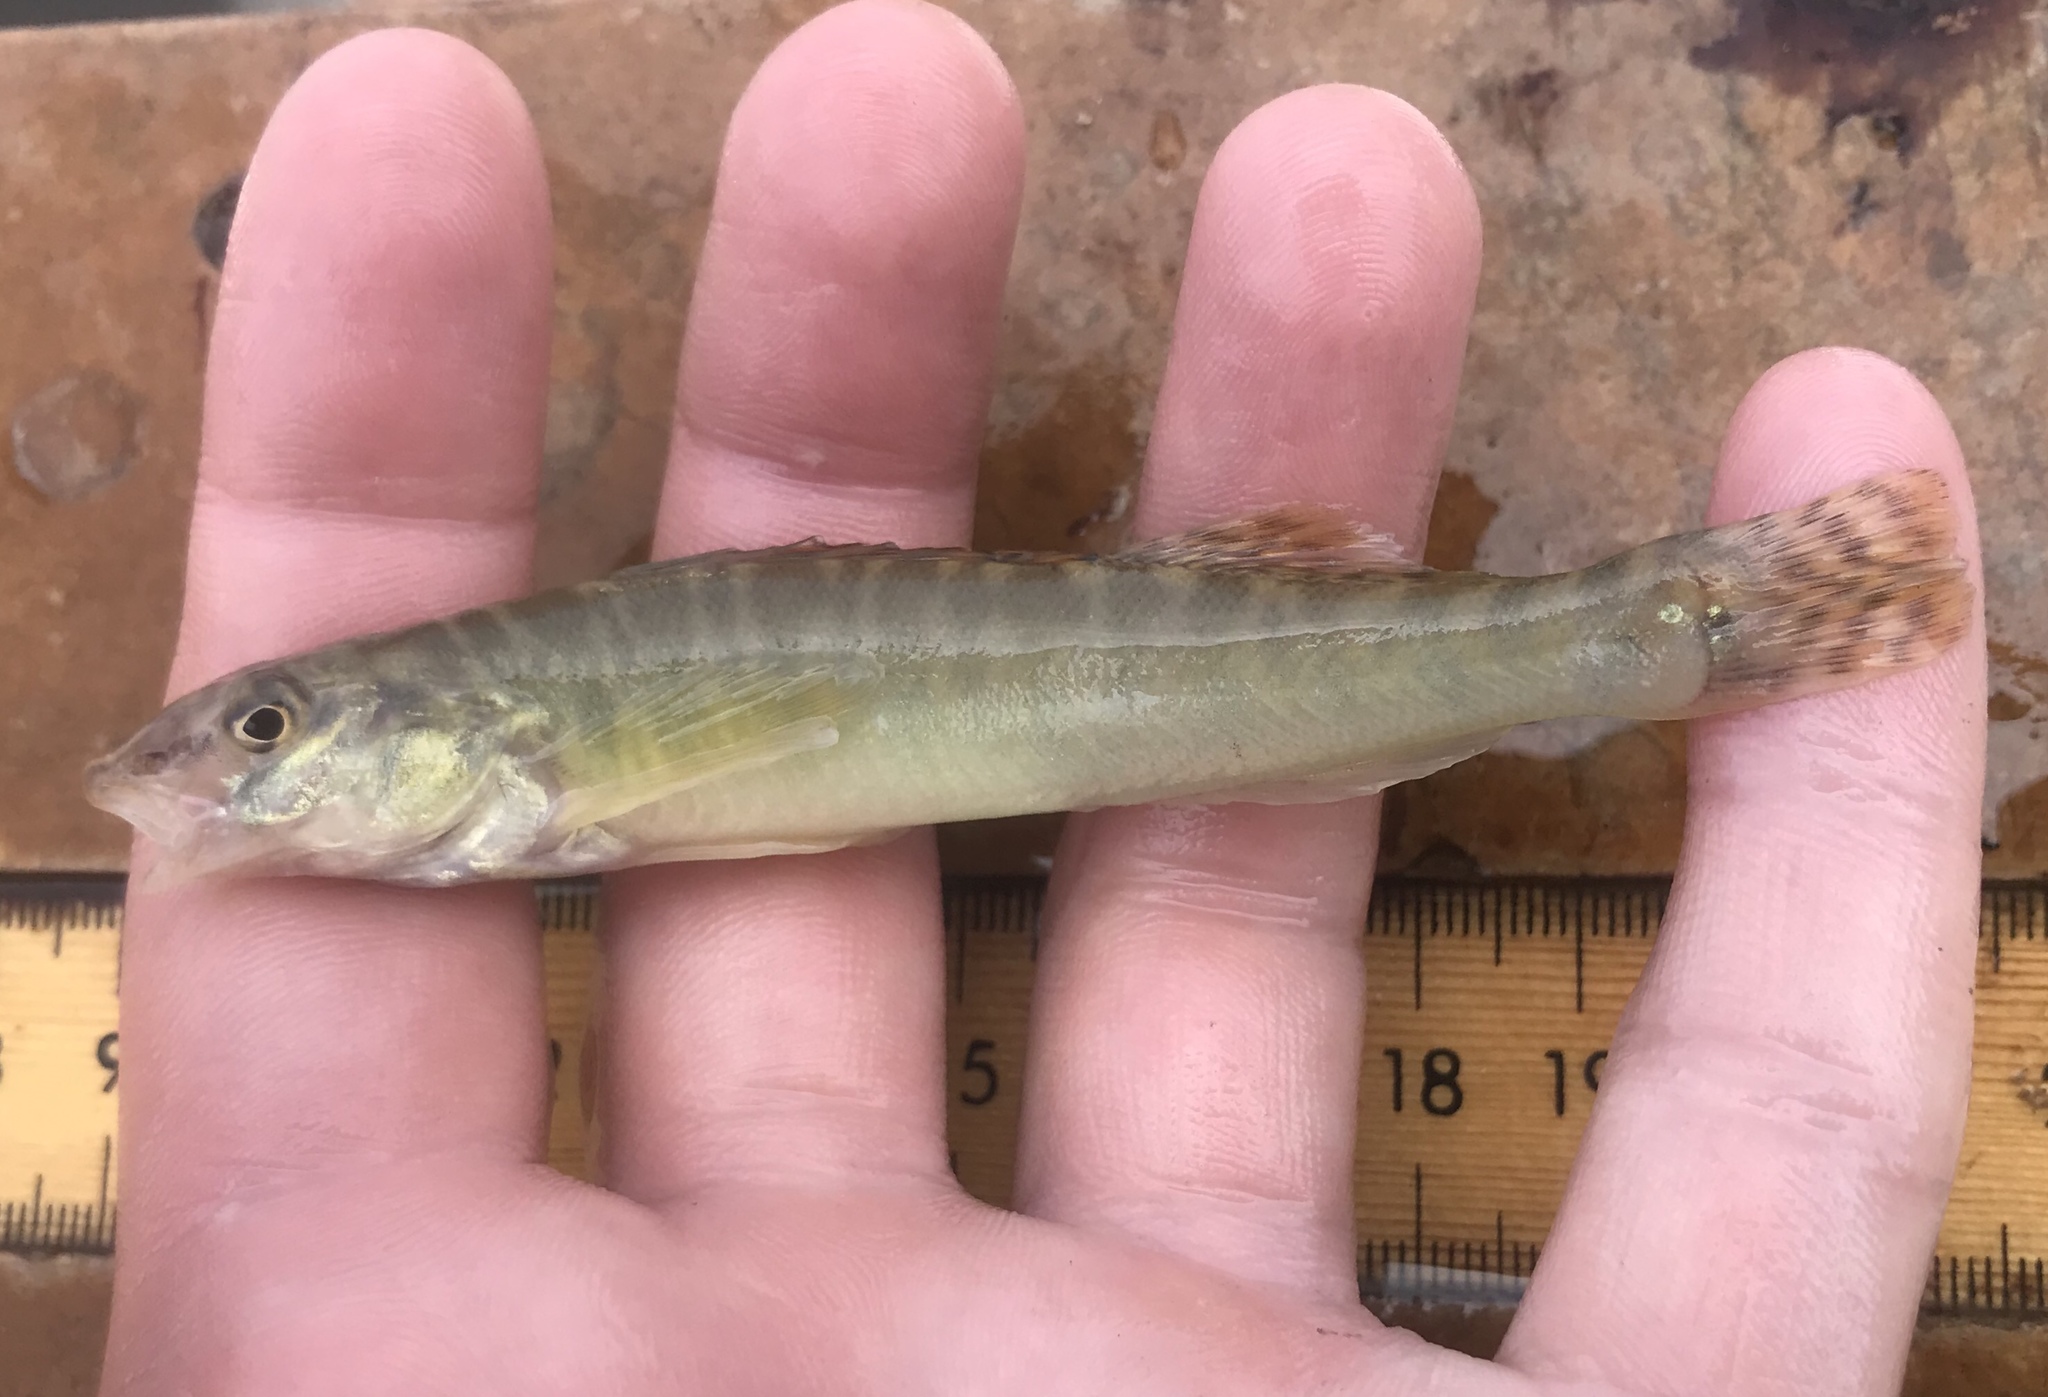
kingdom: Animalia
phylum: Chordata
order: Perciformes
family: Percidae
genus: Percina
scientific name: Percina carbonaria
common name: Texas logperch
